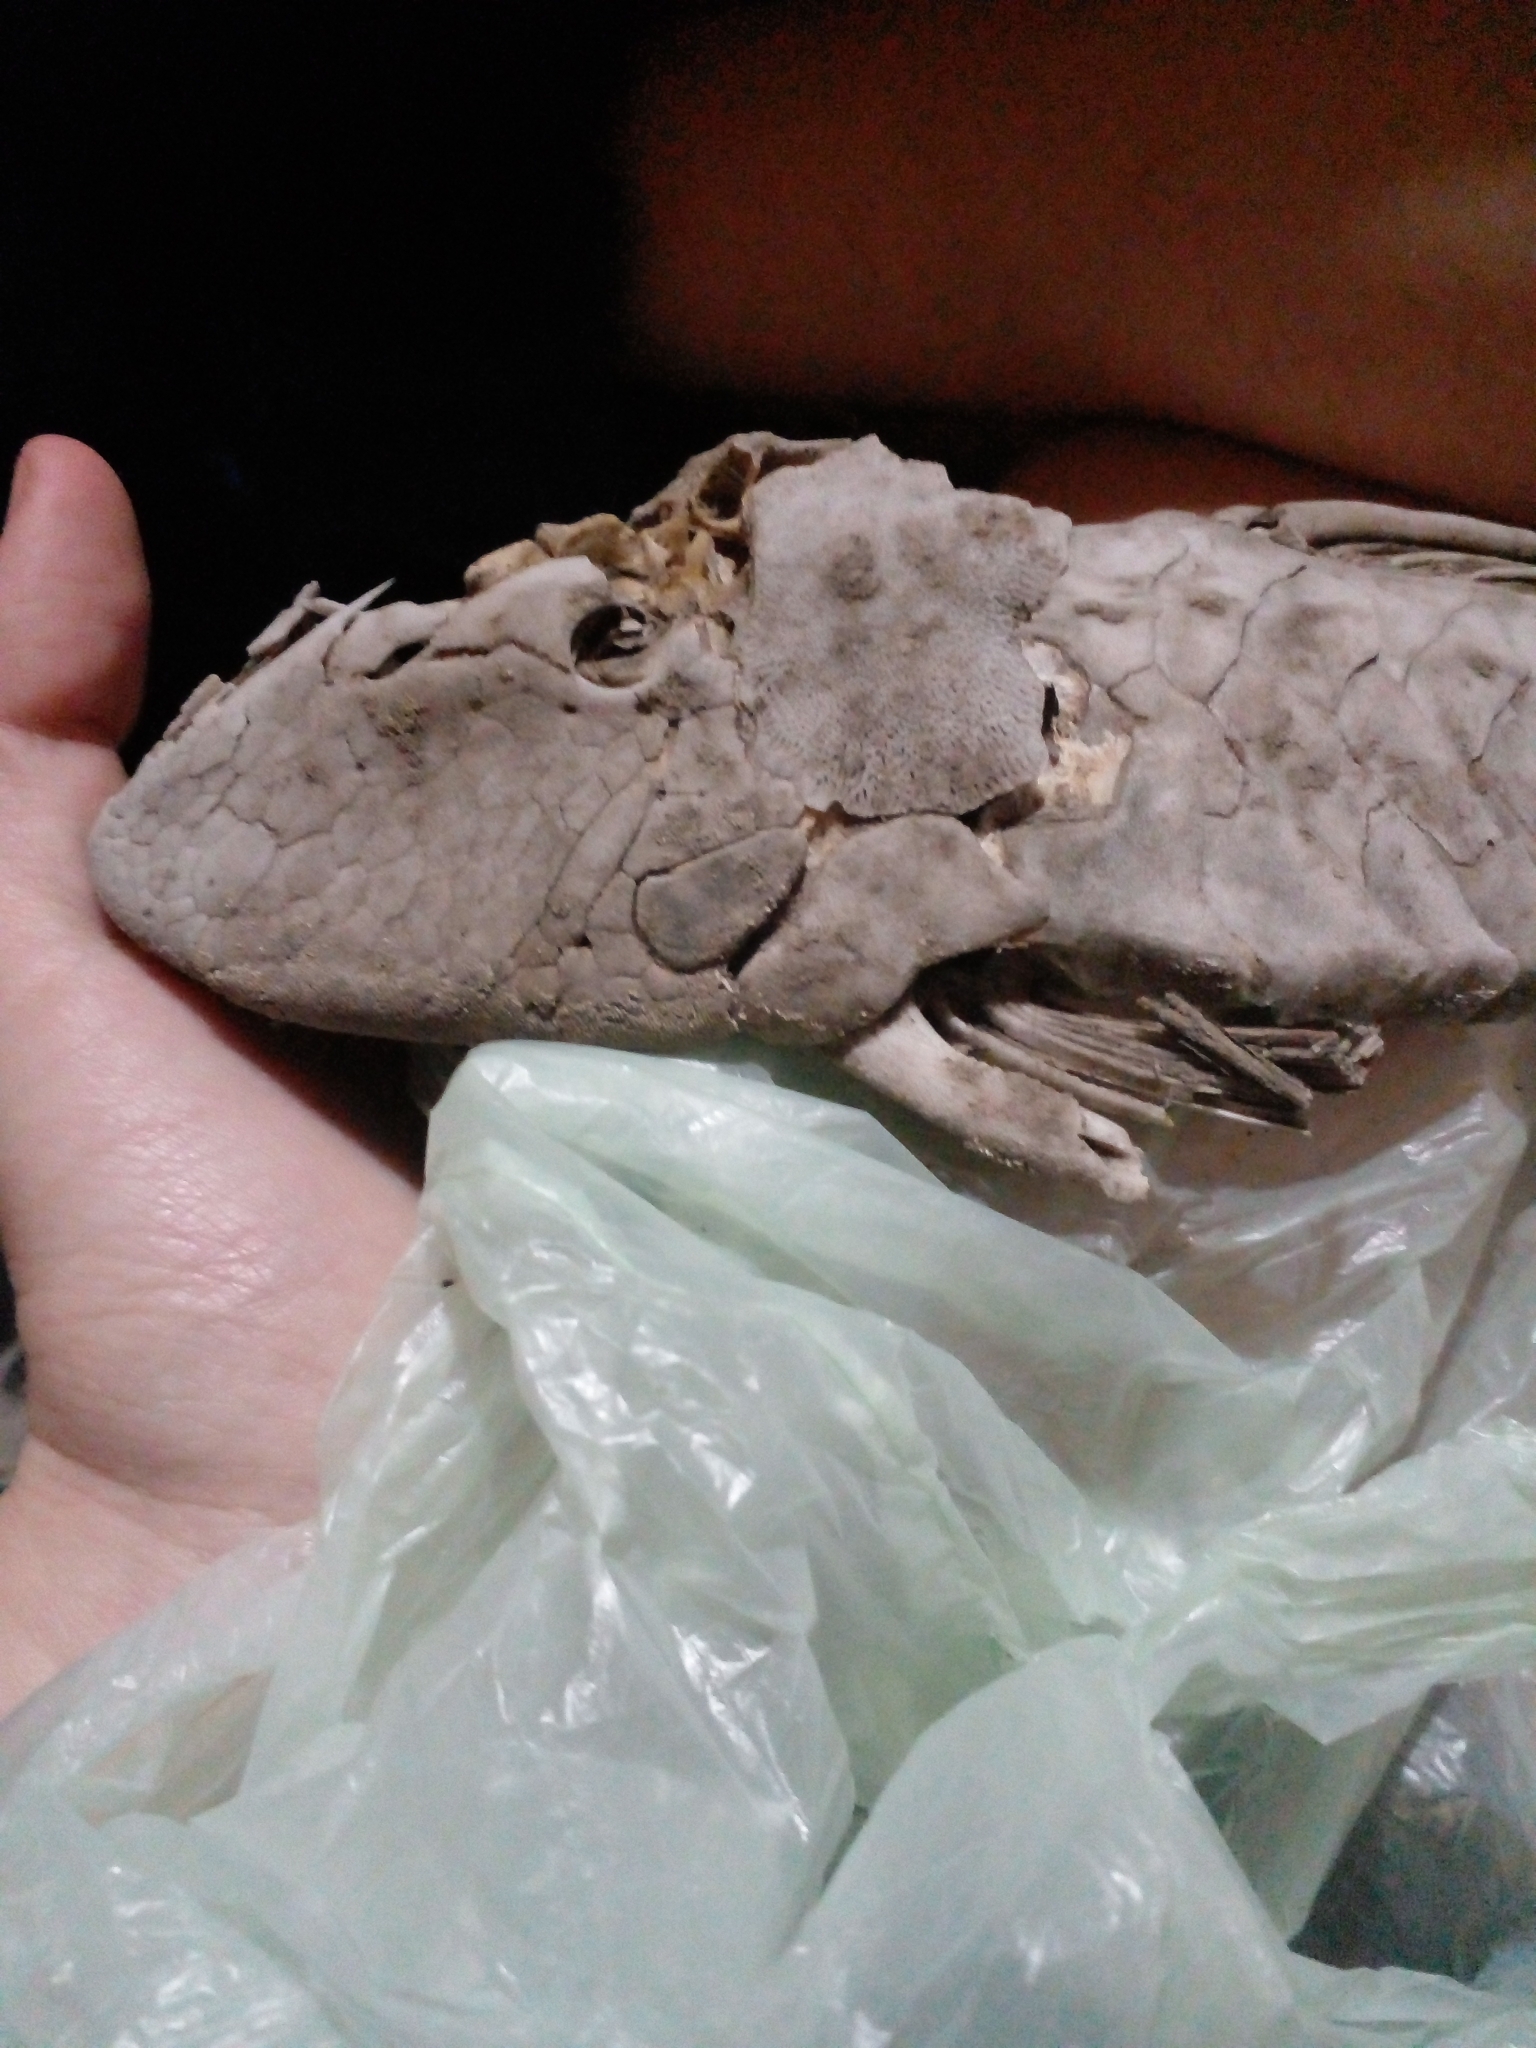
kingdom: Animalia
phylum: Chordata
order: Siluriformes
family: Loricariidae
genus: Hypostomus
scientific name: Hypostomus commersoni
